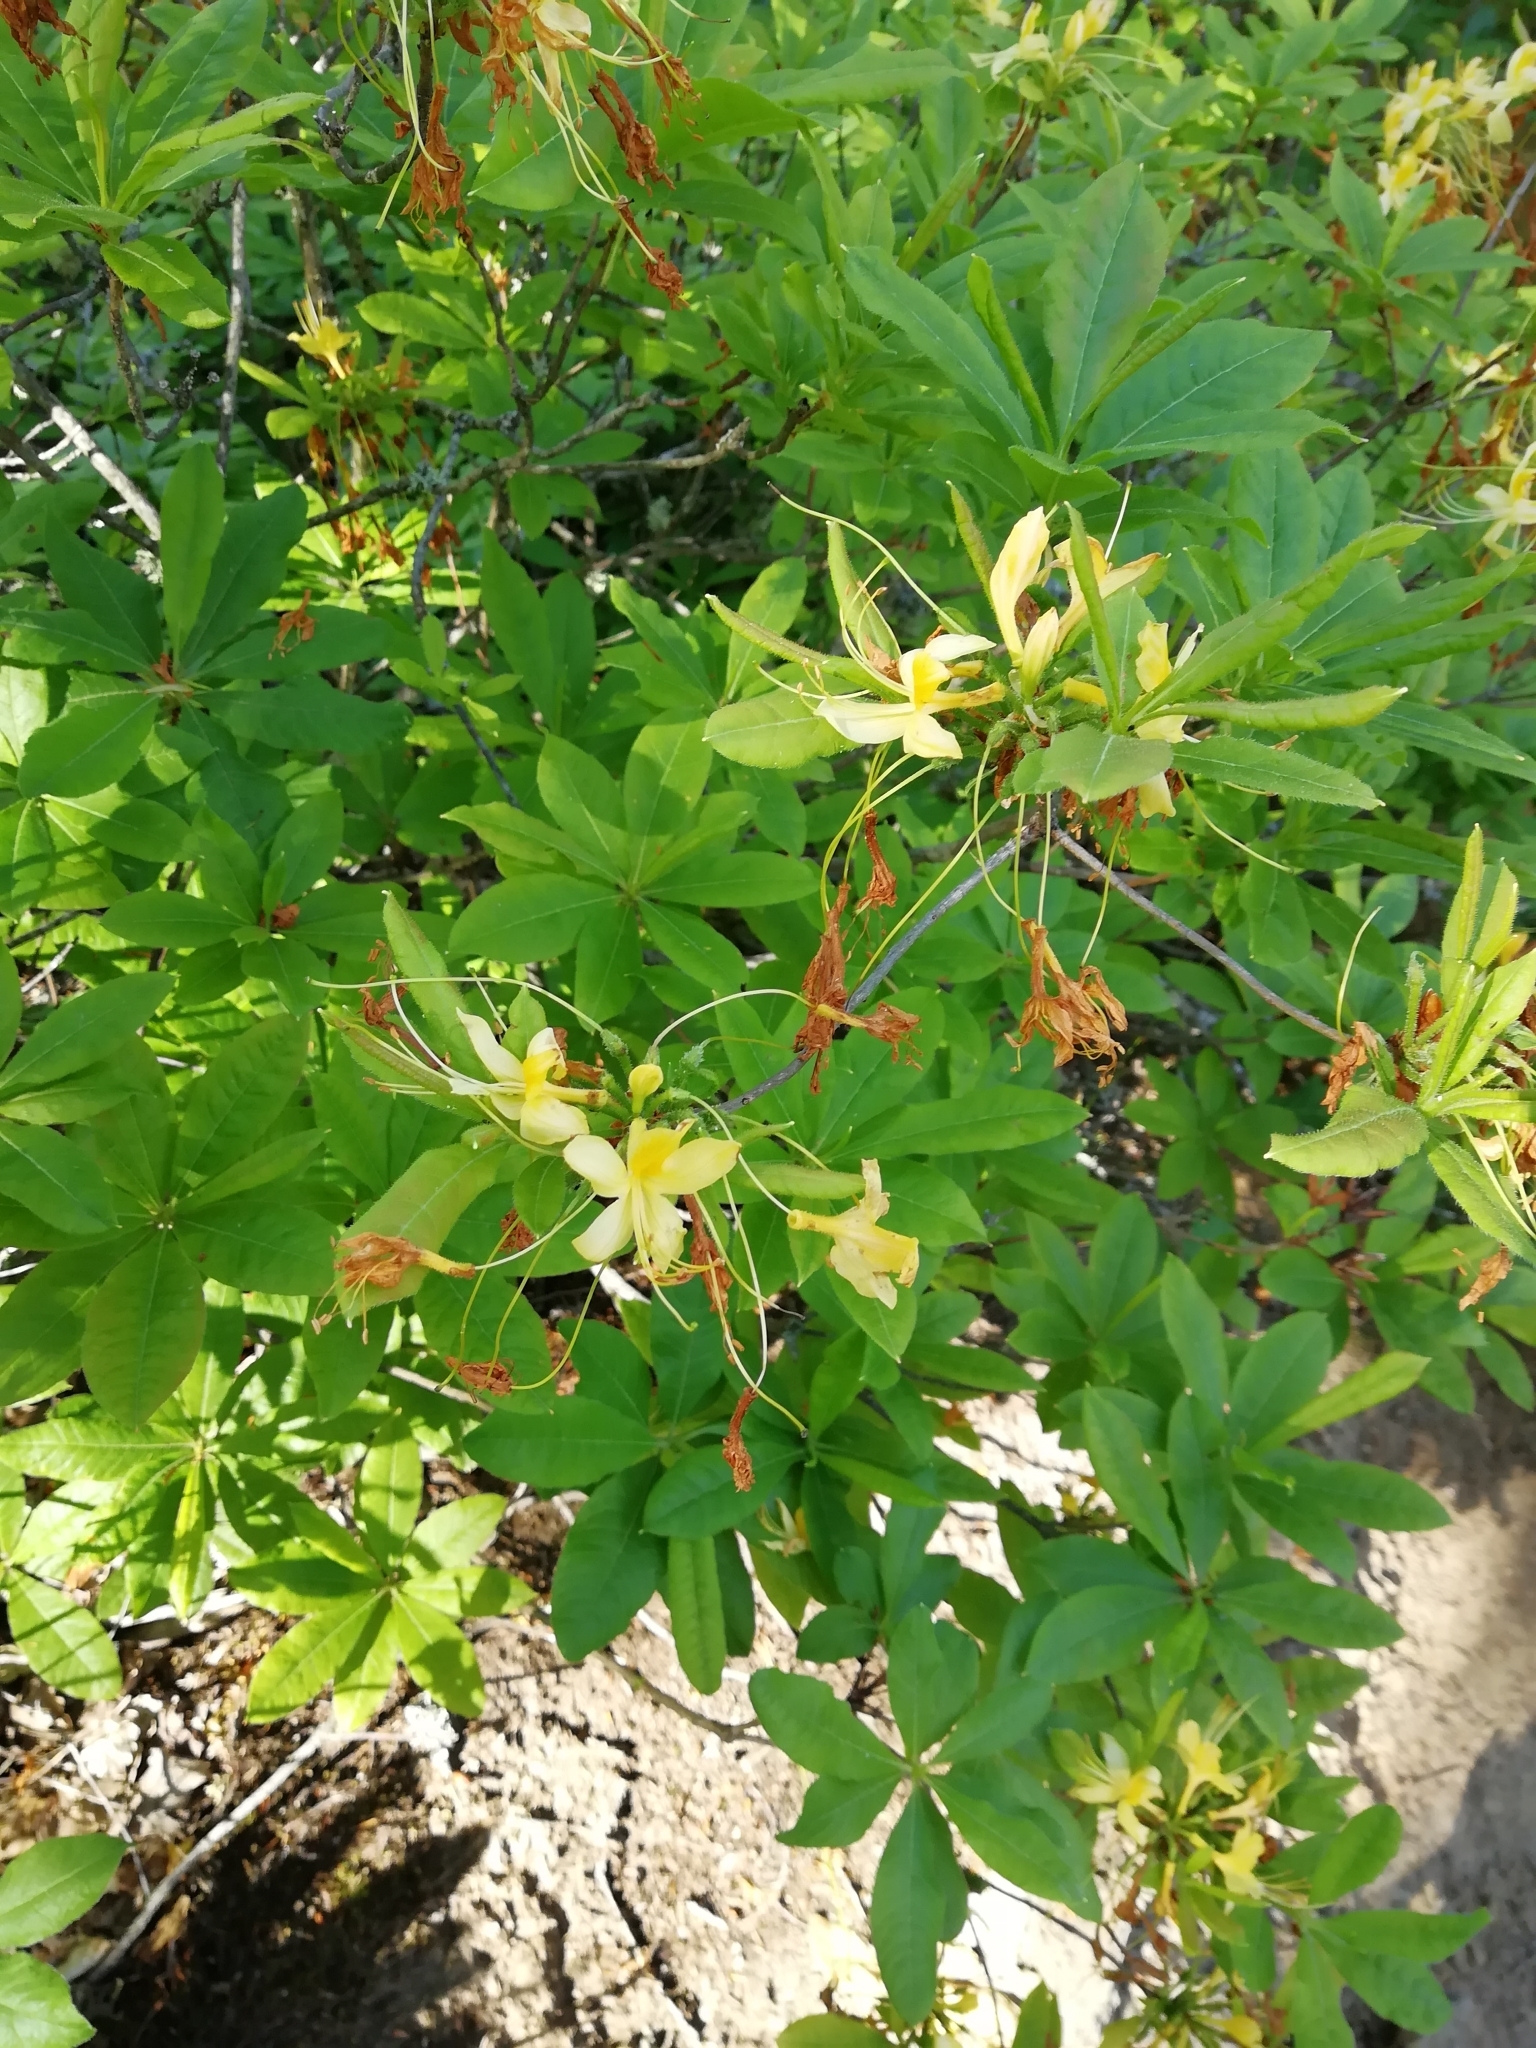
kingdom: Plantae
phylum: Tracheophyta
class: Magnoliopsida
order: Ericales
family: Ericaceae
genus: Rhododendron
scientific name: Rhododendron luteum
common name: Yellow azalea
